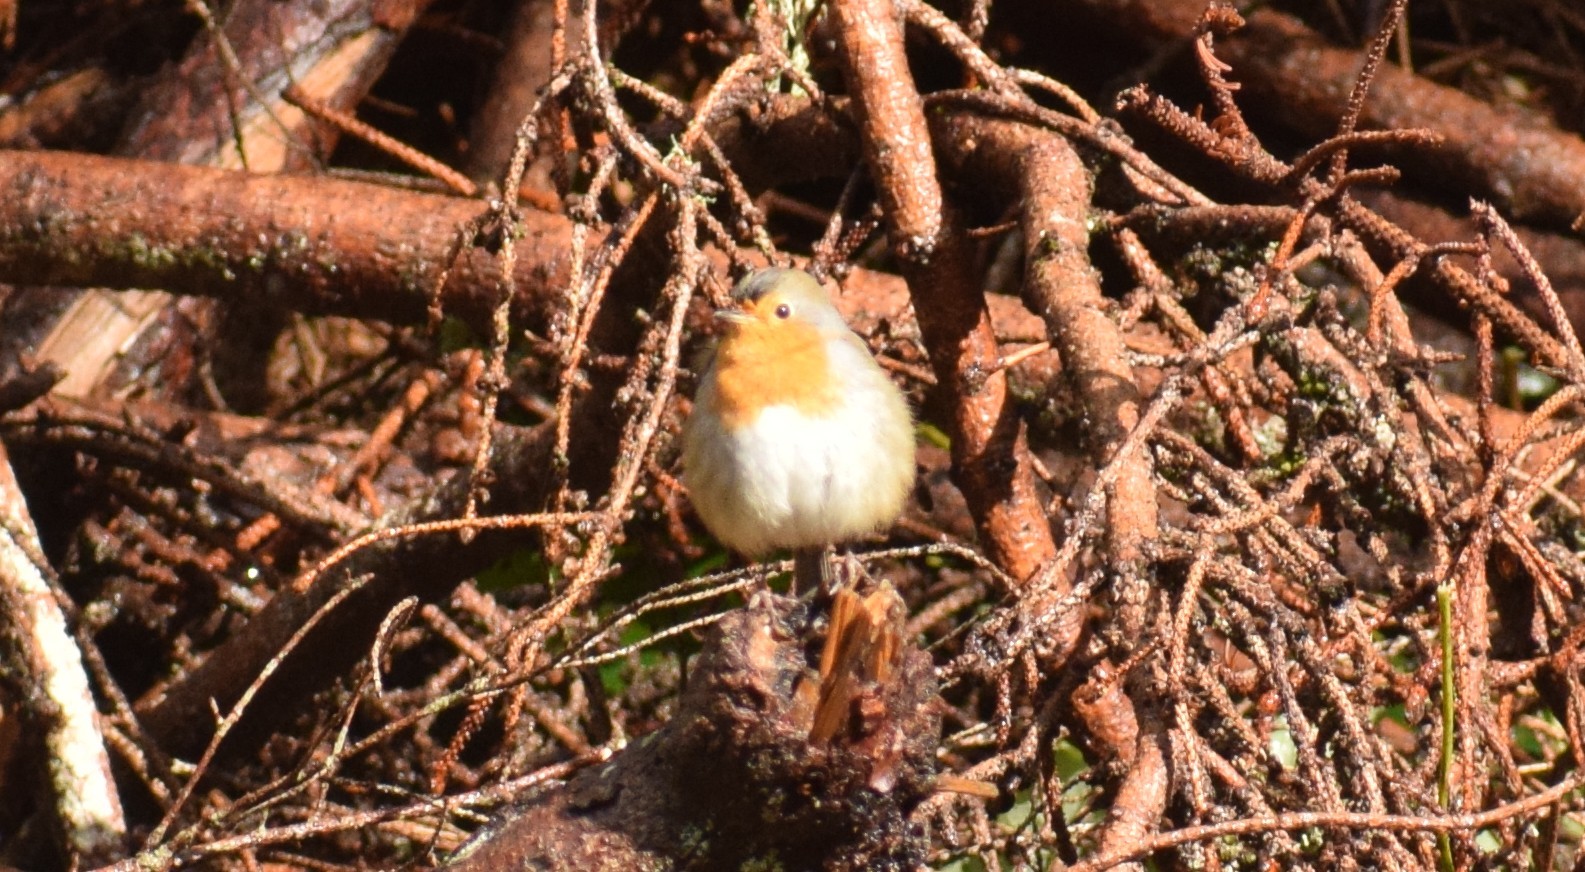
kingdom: Animalia
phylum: Chordata
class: Aves
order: Passeriformes
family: Muscicapidae
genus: Erithacus
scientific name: Erithacus rubecula
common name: European robin
